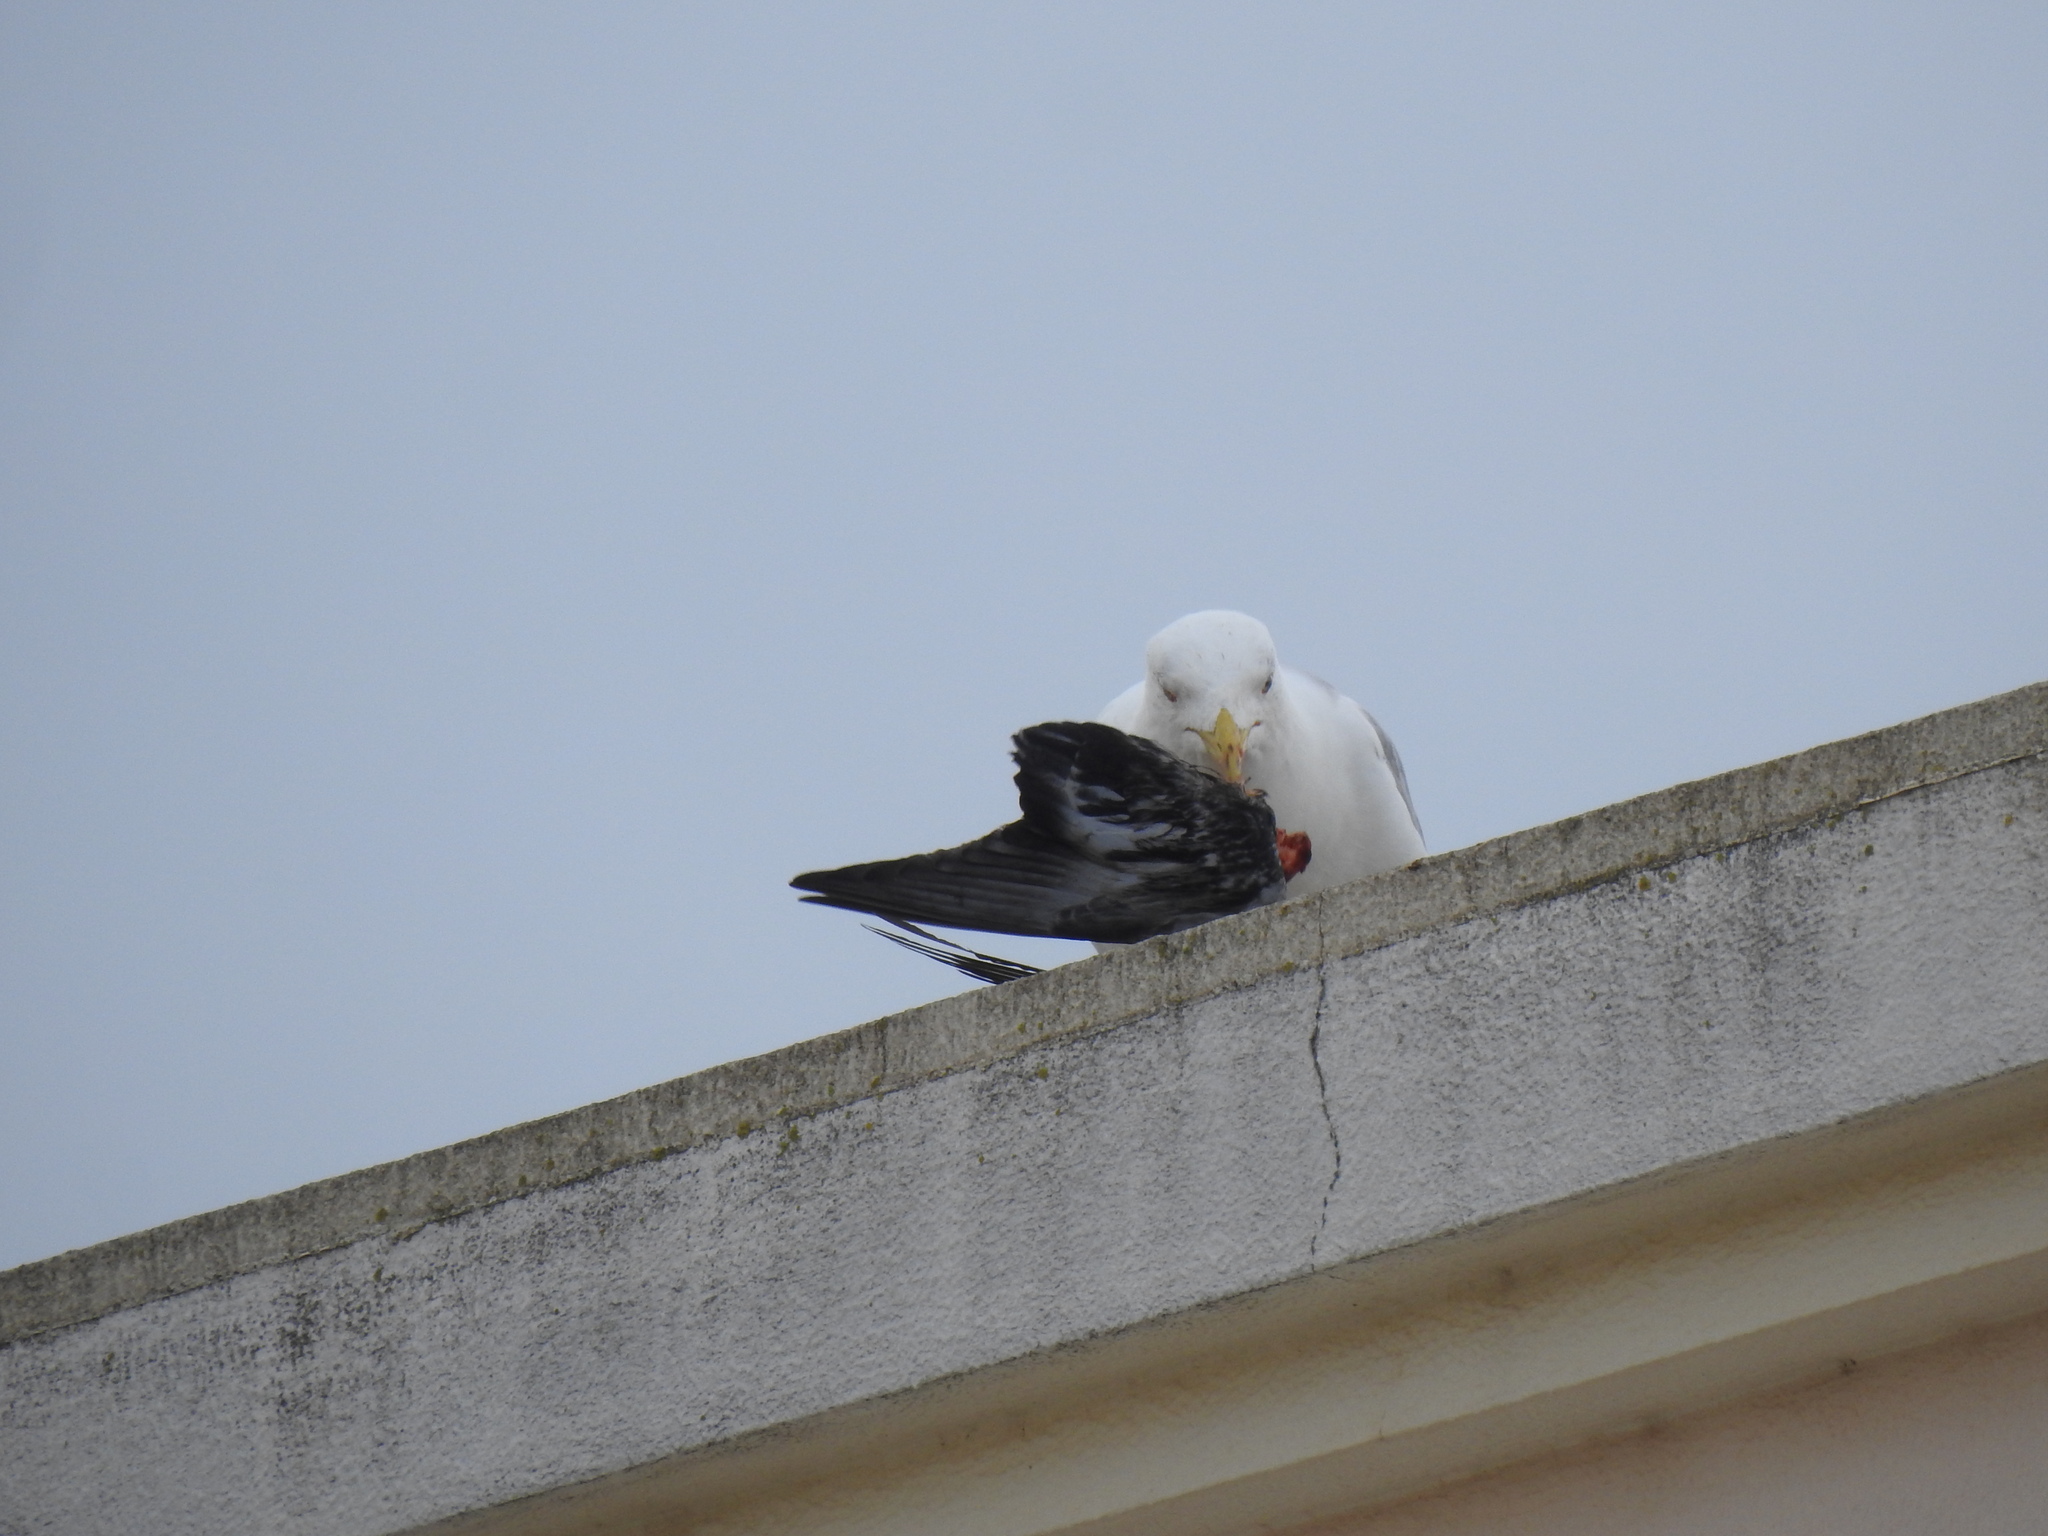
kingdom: Animalia
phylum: Chordata
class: Aves
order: Charadriiformes
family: Laridae
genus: Larus
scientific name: Larus michahellis
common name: Yellow-legged gull
